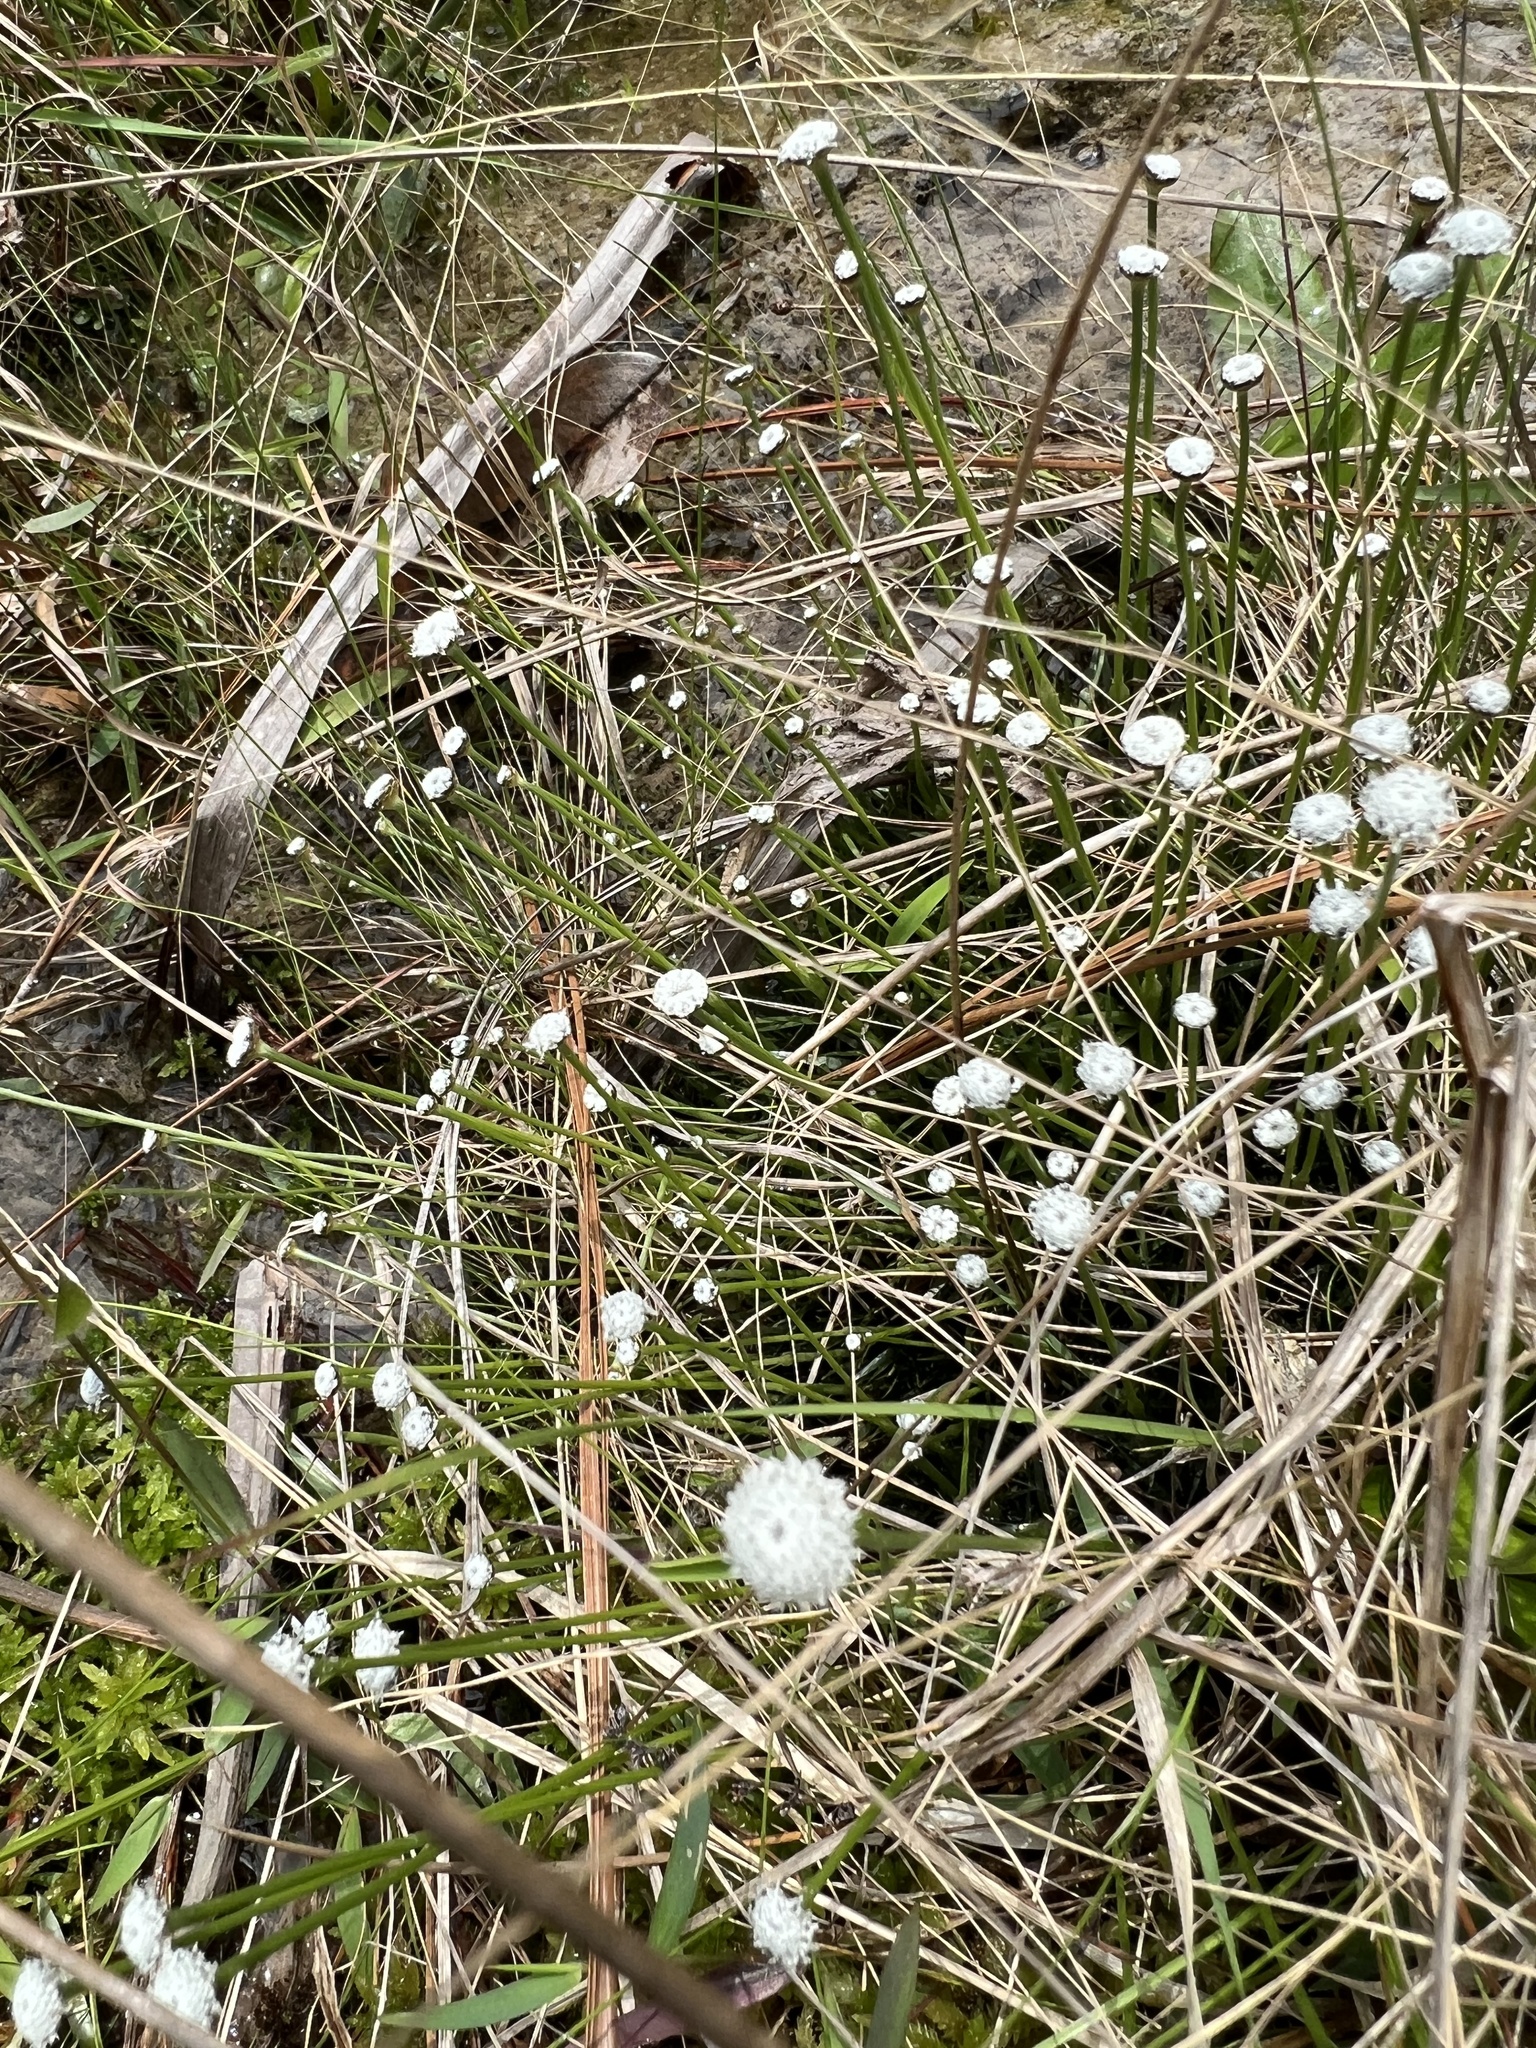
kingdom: Plantae
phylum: Tracheophyta
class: Liliopsida
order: Poales
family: Eriocaulaceae
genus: Eriocaulon
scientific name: Eriocaulon texense
